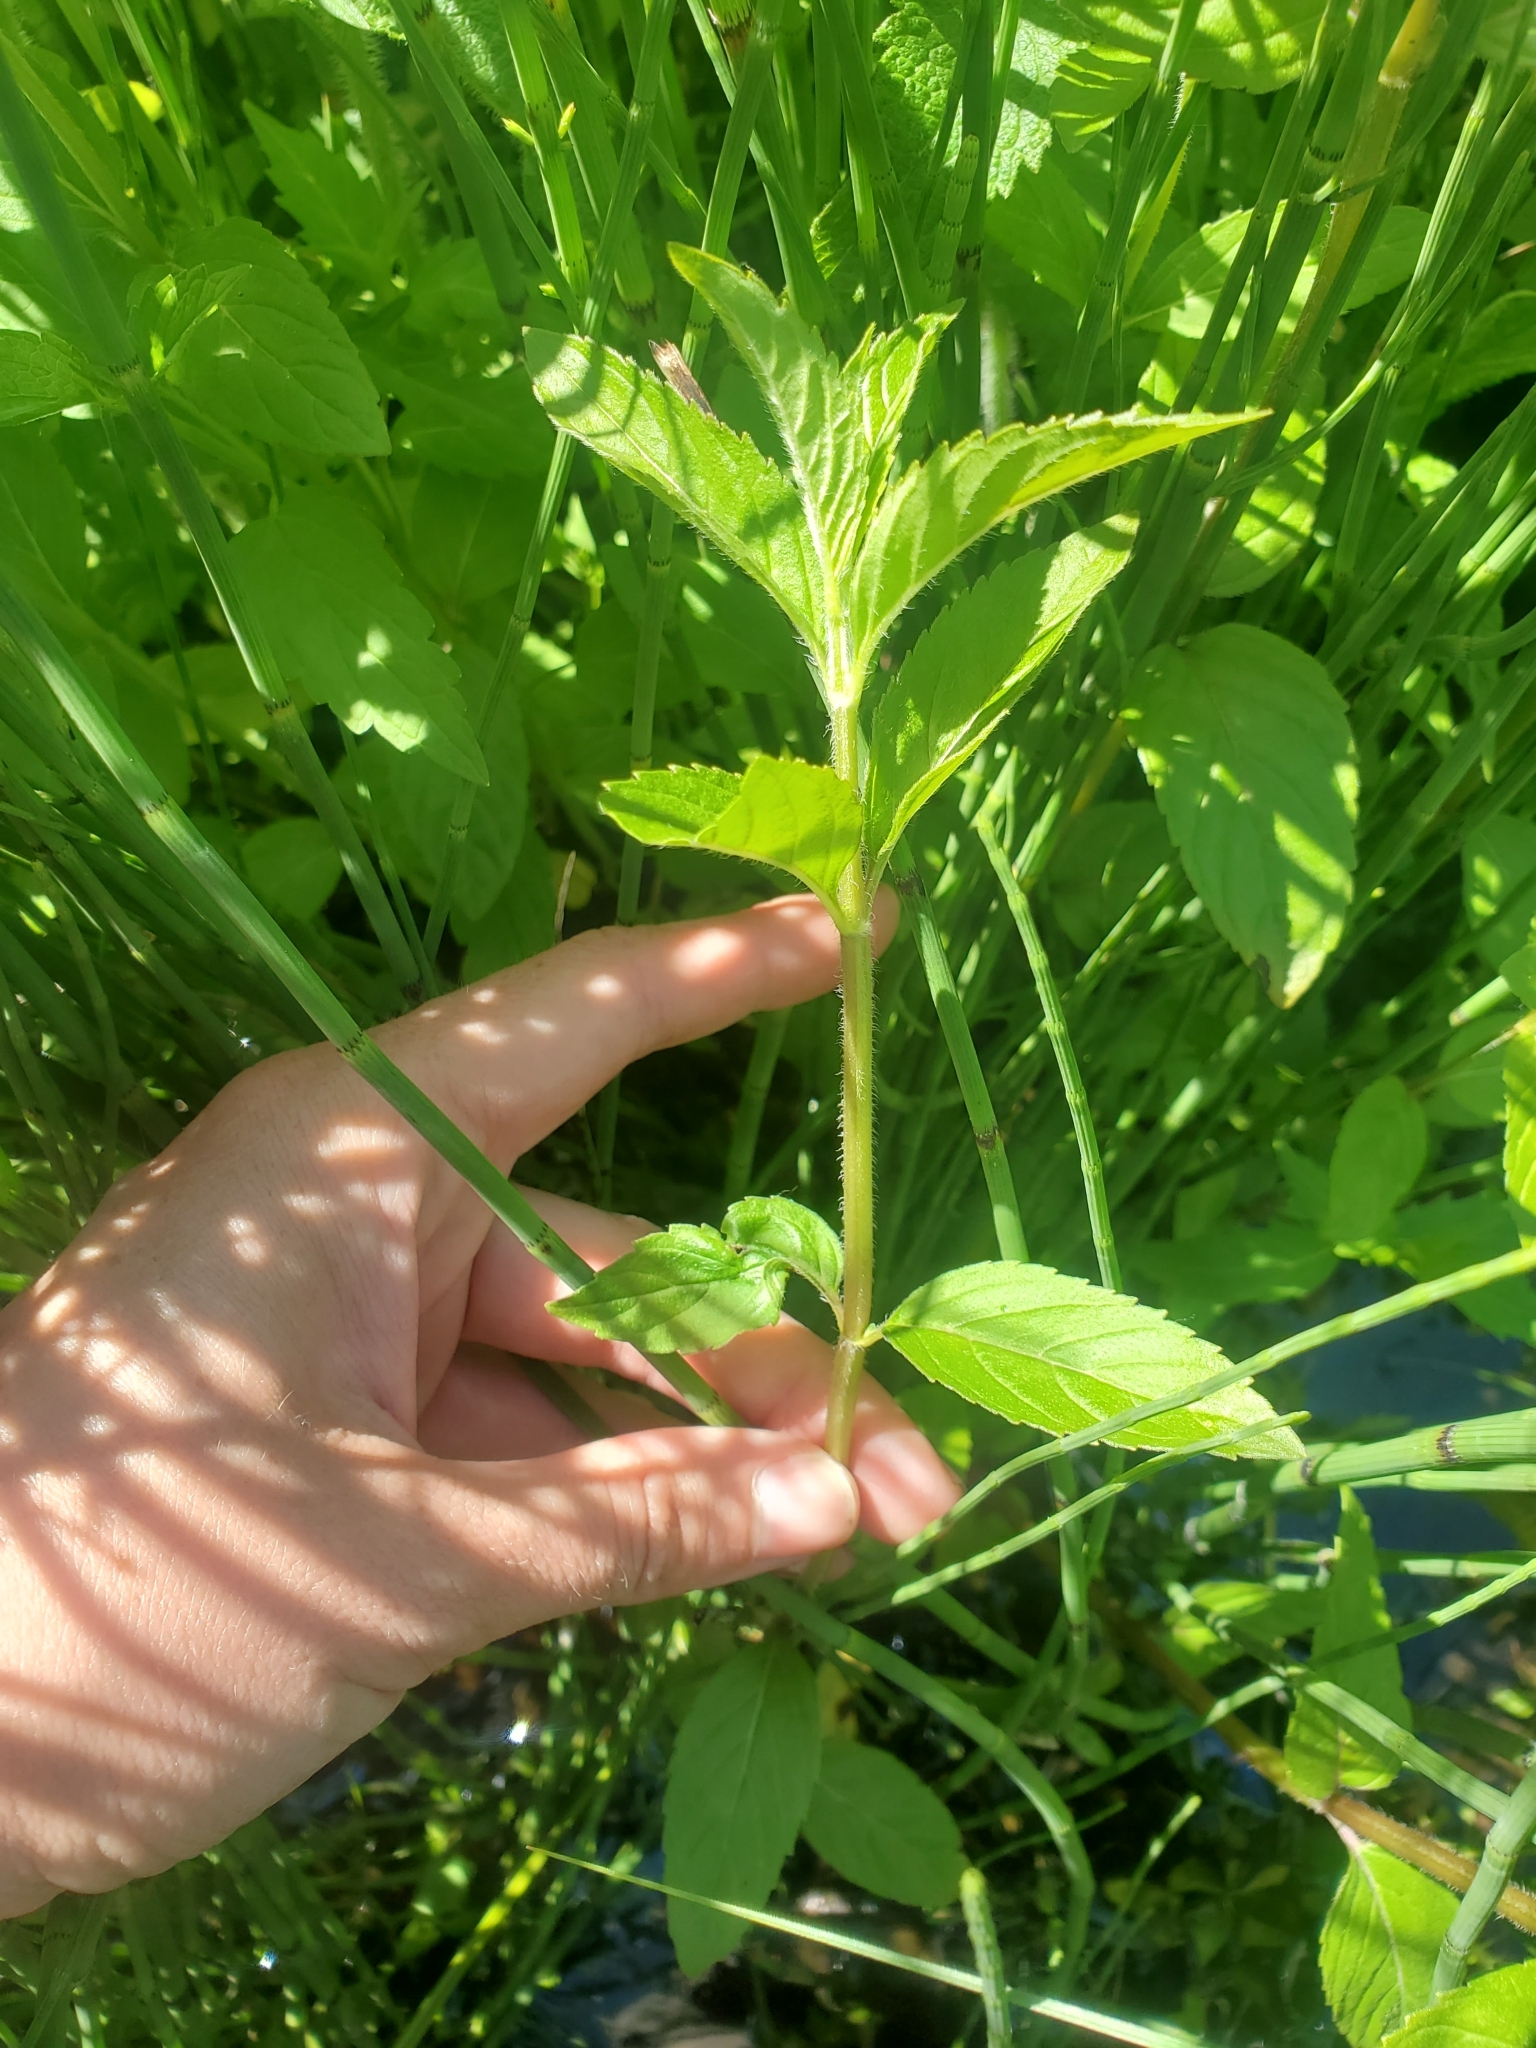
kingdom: Plantae
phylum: Tracheophyta
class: Magnoliopsida
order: Lamiales
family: Lamiaceae
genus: Mentha
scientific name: Mentha canadensis
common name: American corn mint
